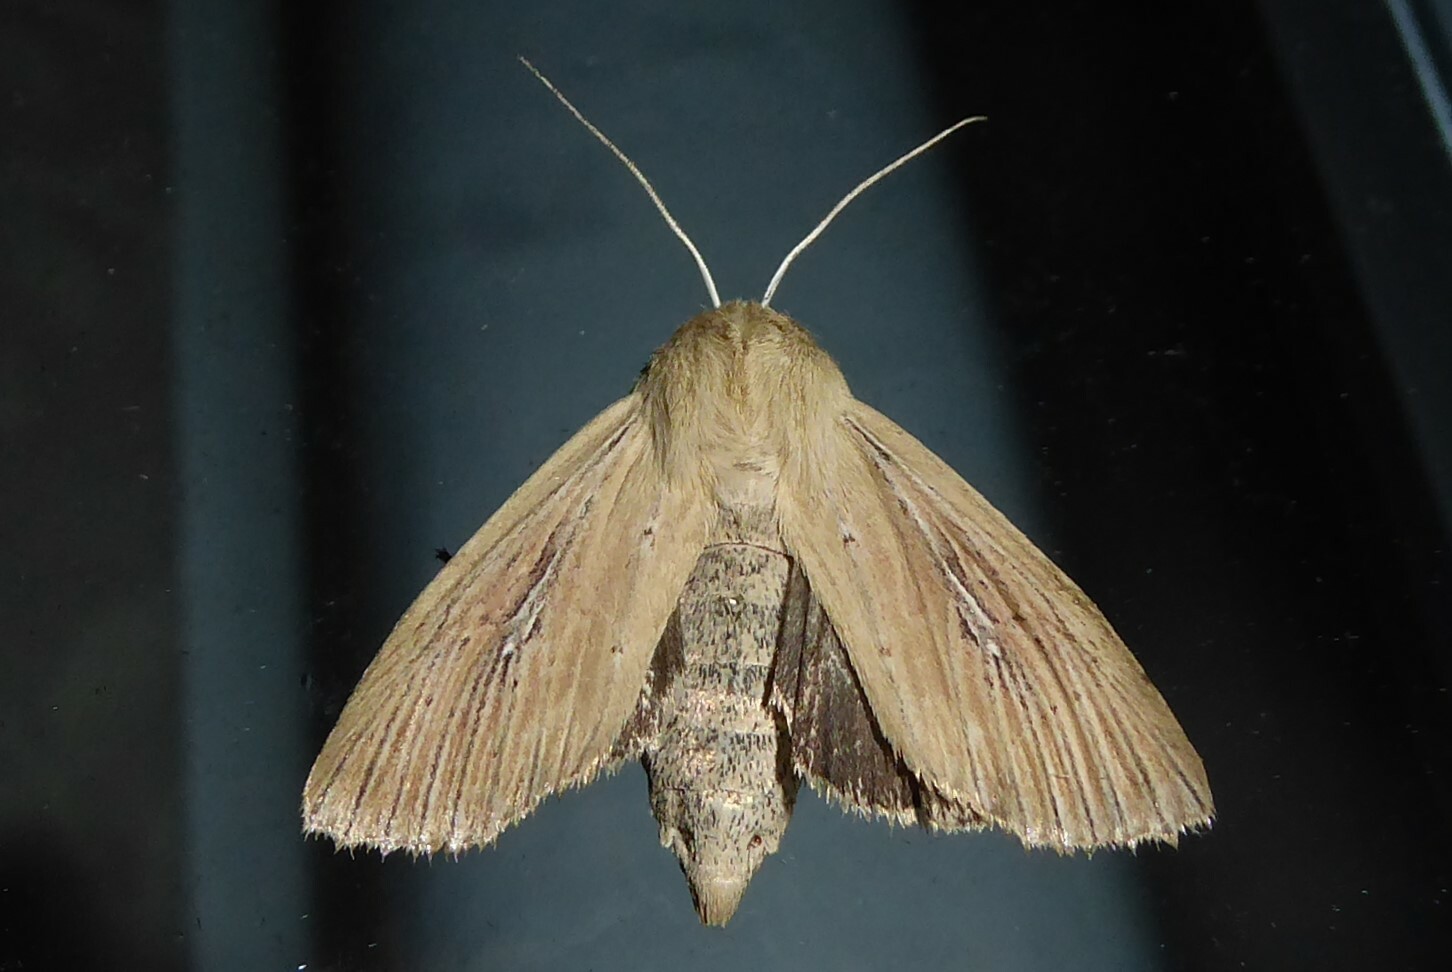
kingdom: Animalia
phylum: Arthropoda
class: Insecta
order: Lepidoptera
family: Noctuidae
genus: Ichneutica
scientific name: Ichneutica arotis
